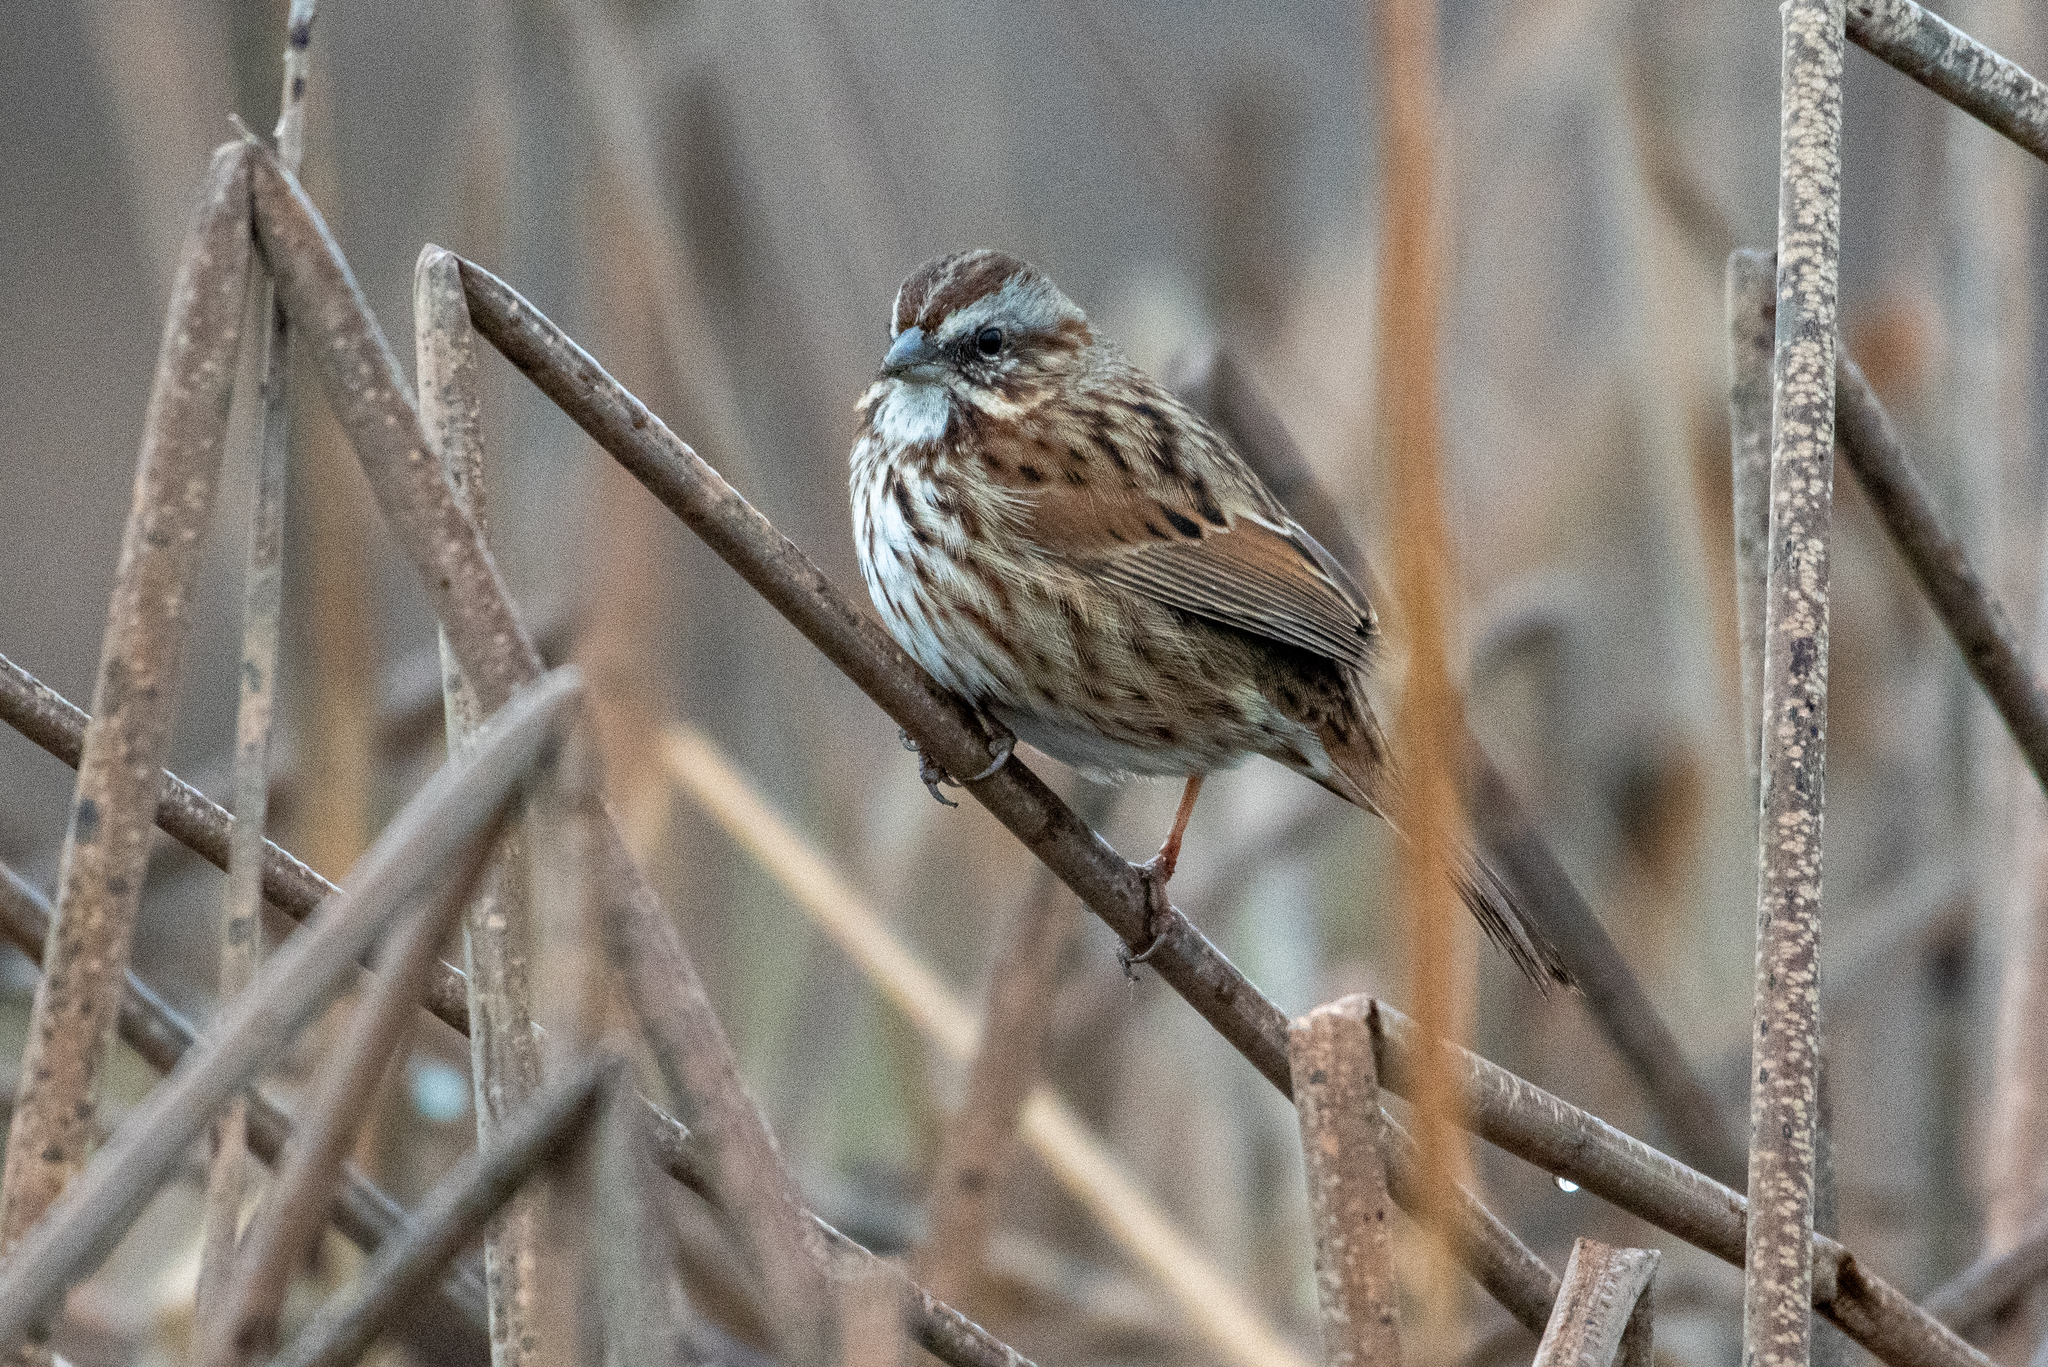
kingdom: Animalia
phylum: Chordata
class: Aves
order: Passeriformes
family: Passerellidae
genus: Melospiza
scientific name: Melospiza melodia
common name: Song sparrow
